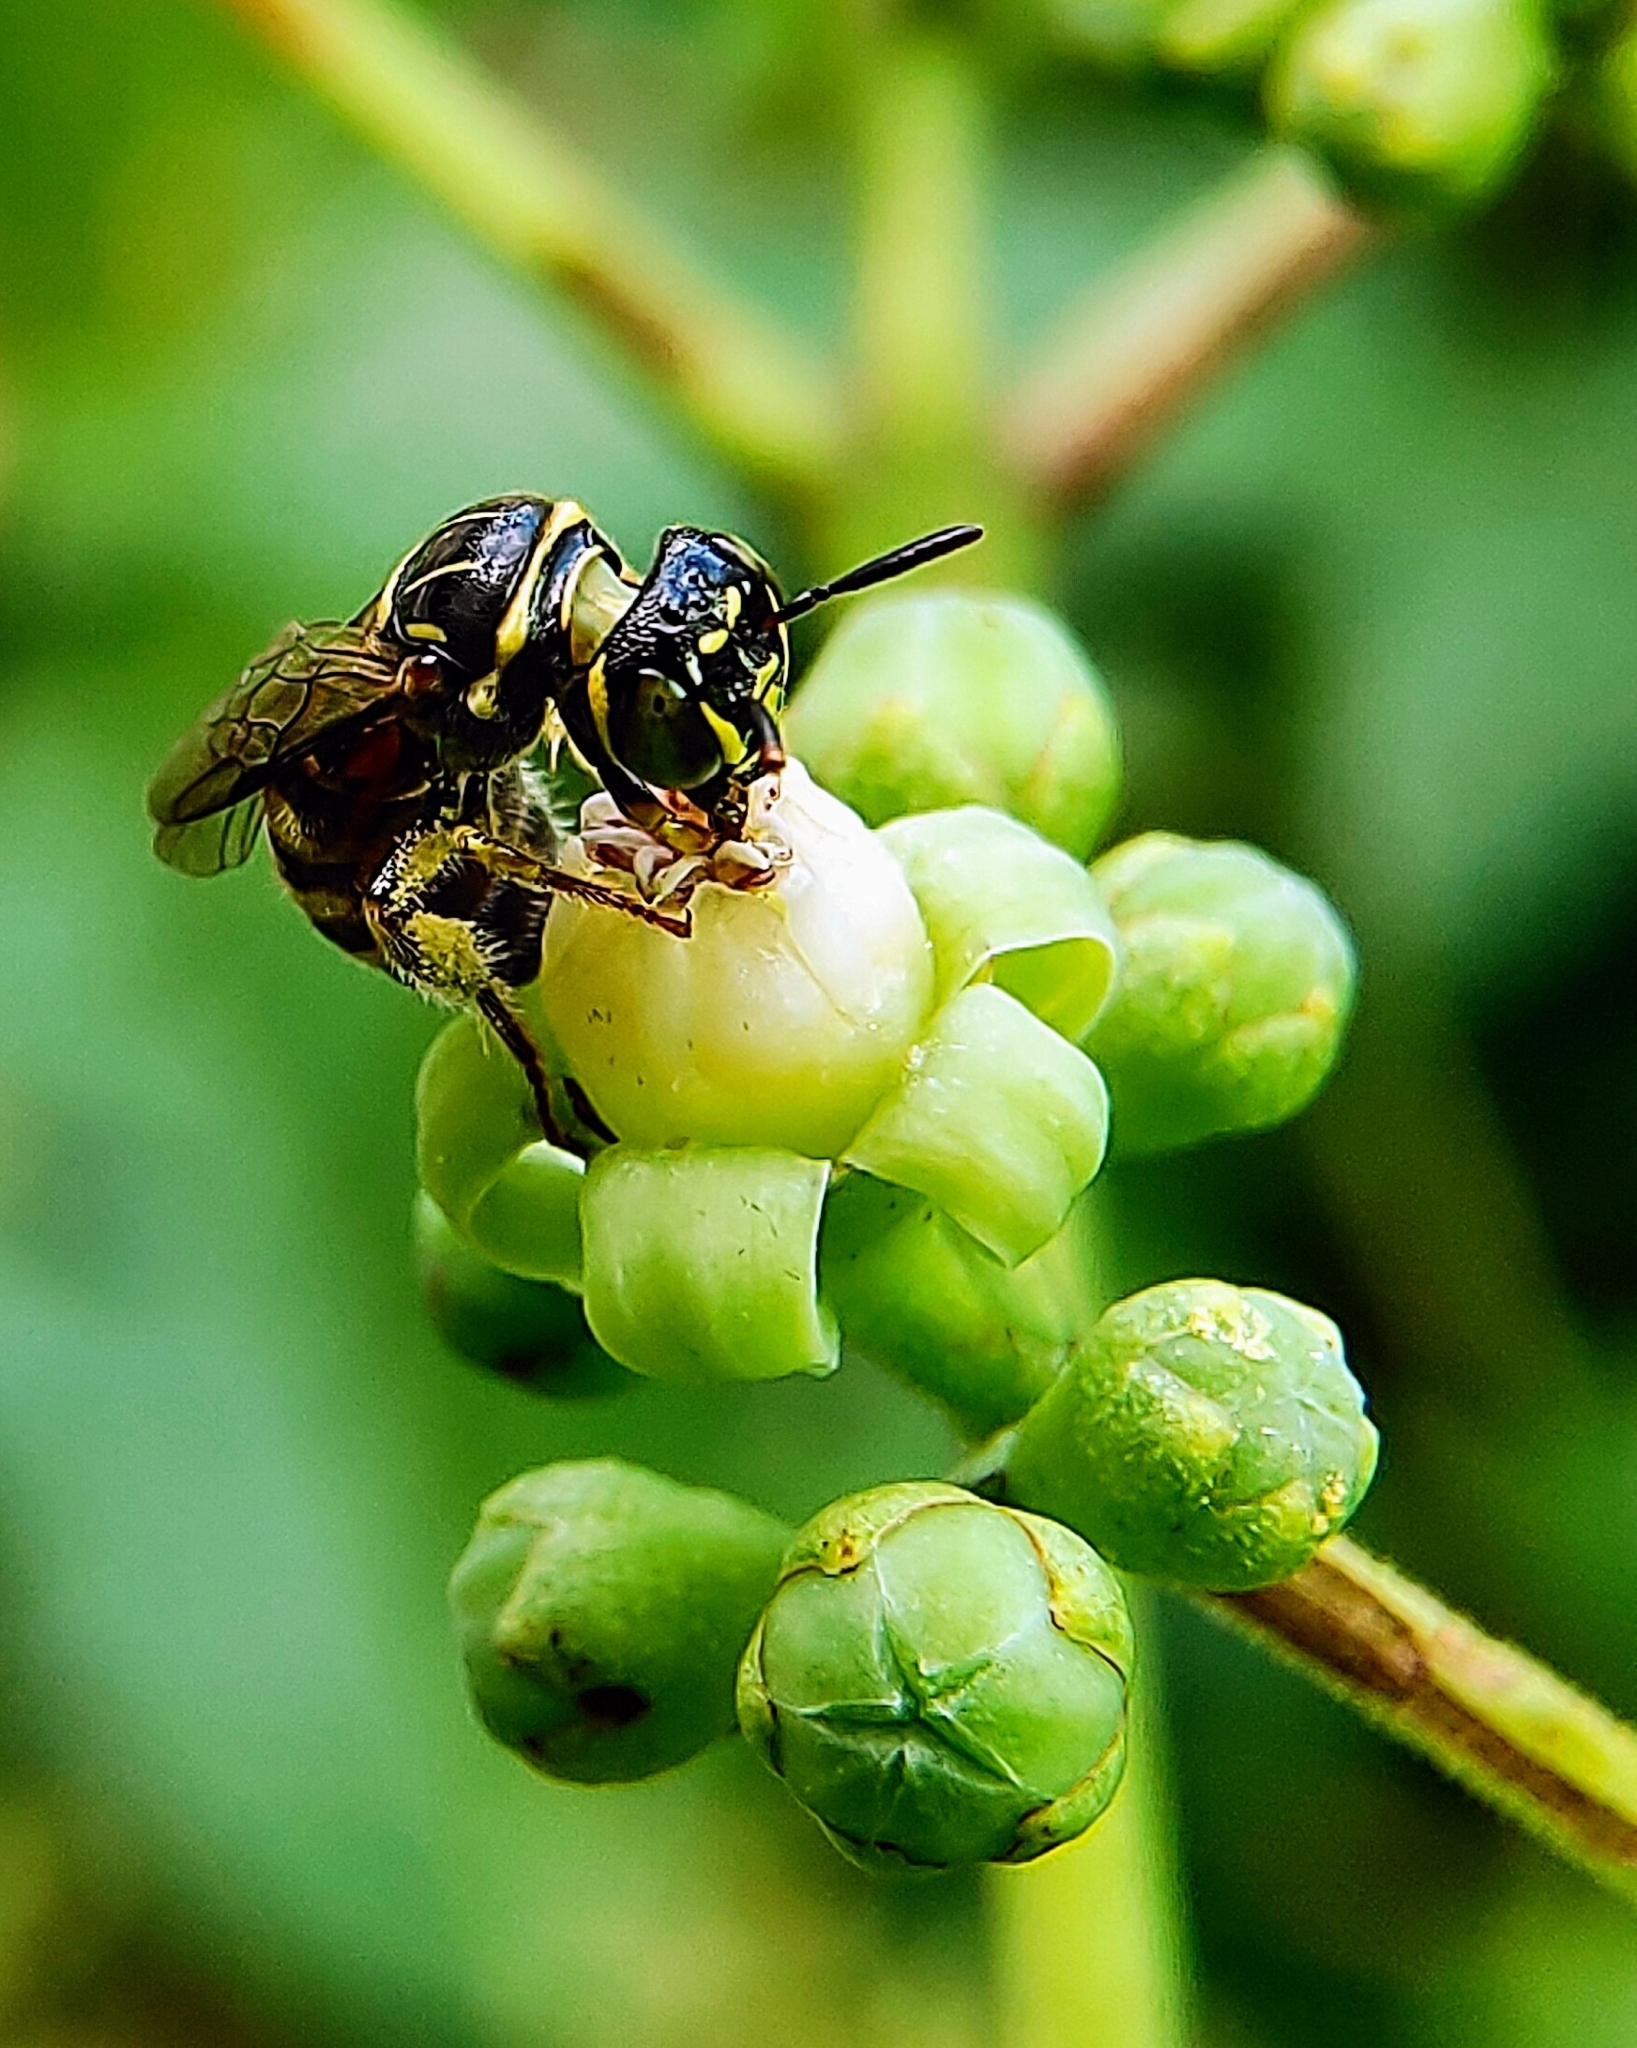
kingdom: Animalia
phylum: Arthropoda
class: Insecta
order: Hymenoptera
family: Apidae
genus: Ceratina
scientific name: Ceratina collusor
